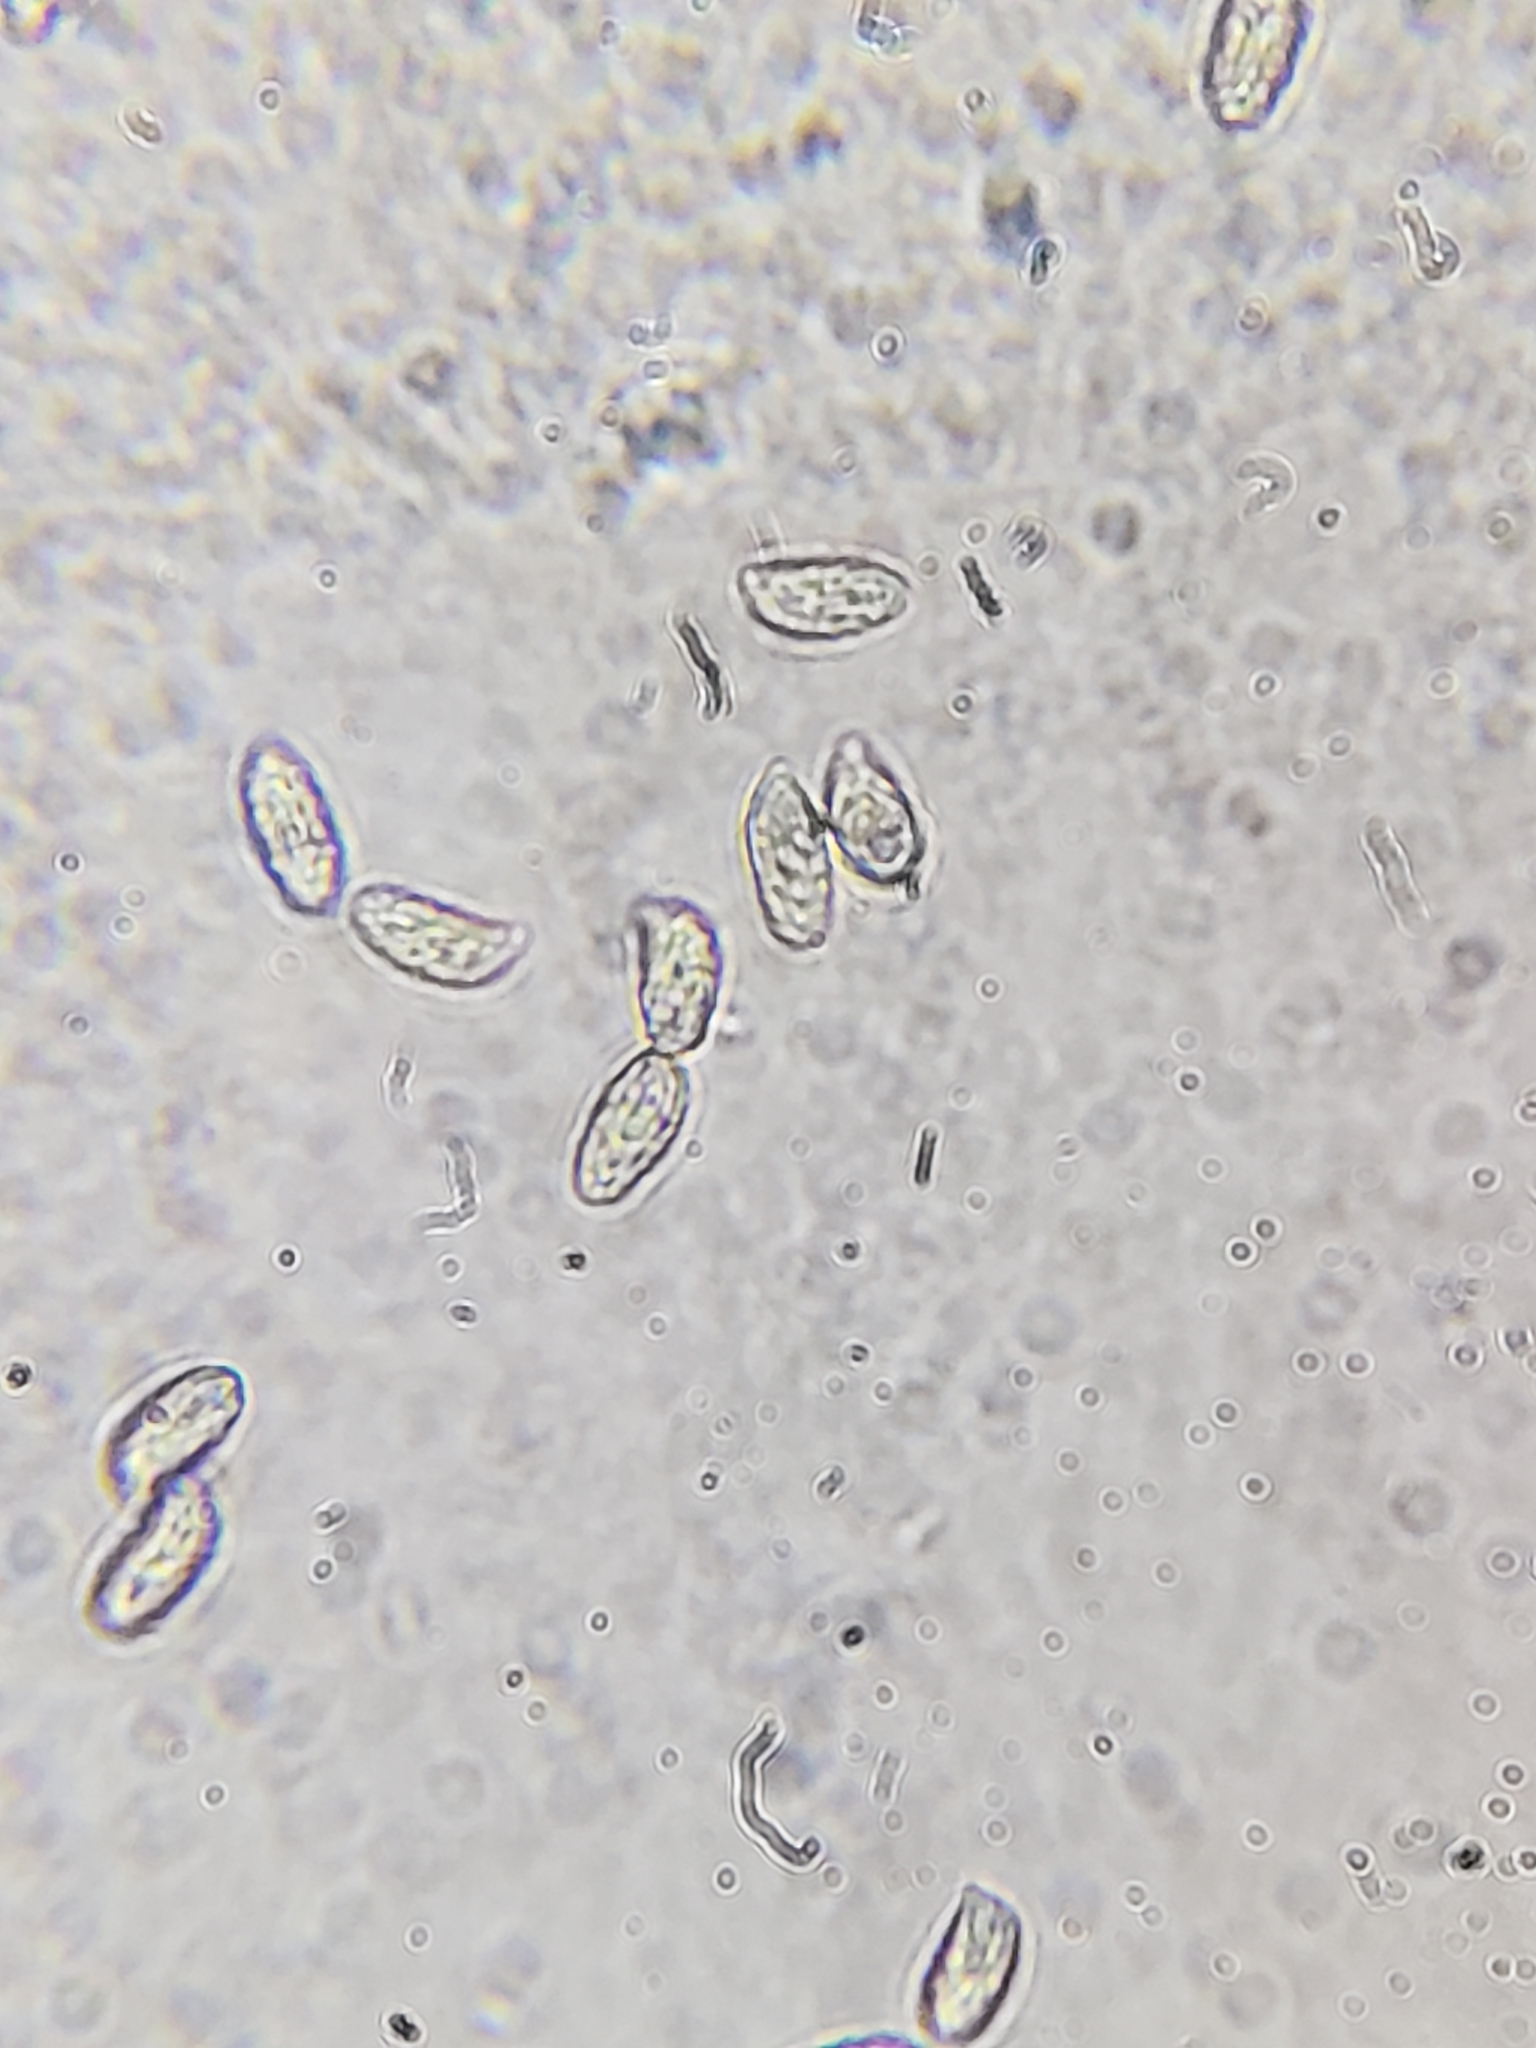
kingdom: Fungi
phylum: Basidiomycota
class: Agaricomycetes
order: Russulales
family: Auriscalpiaceae
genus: Artomyces
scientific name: Artomyces pyxidatus
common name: Crown-tipped coral fungus
